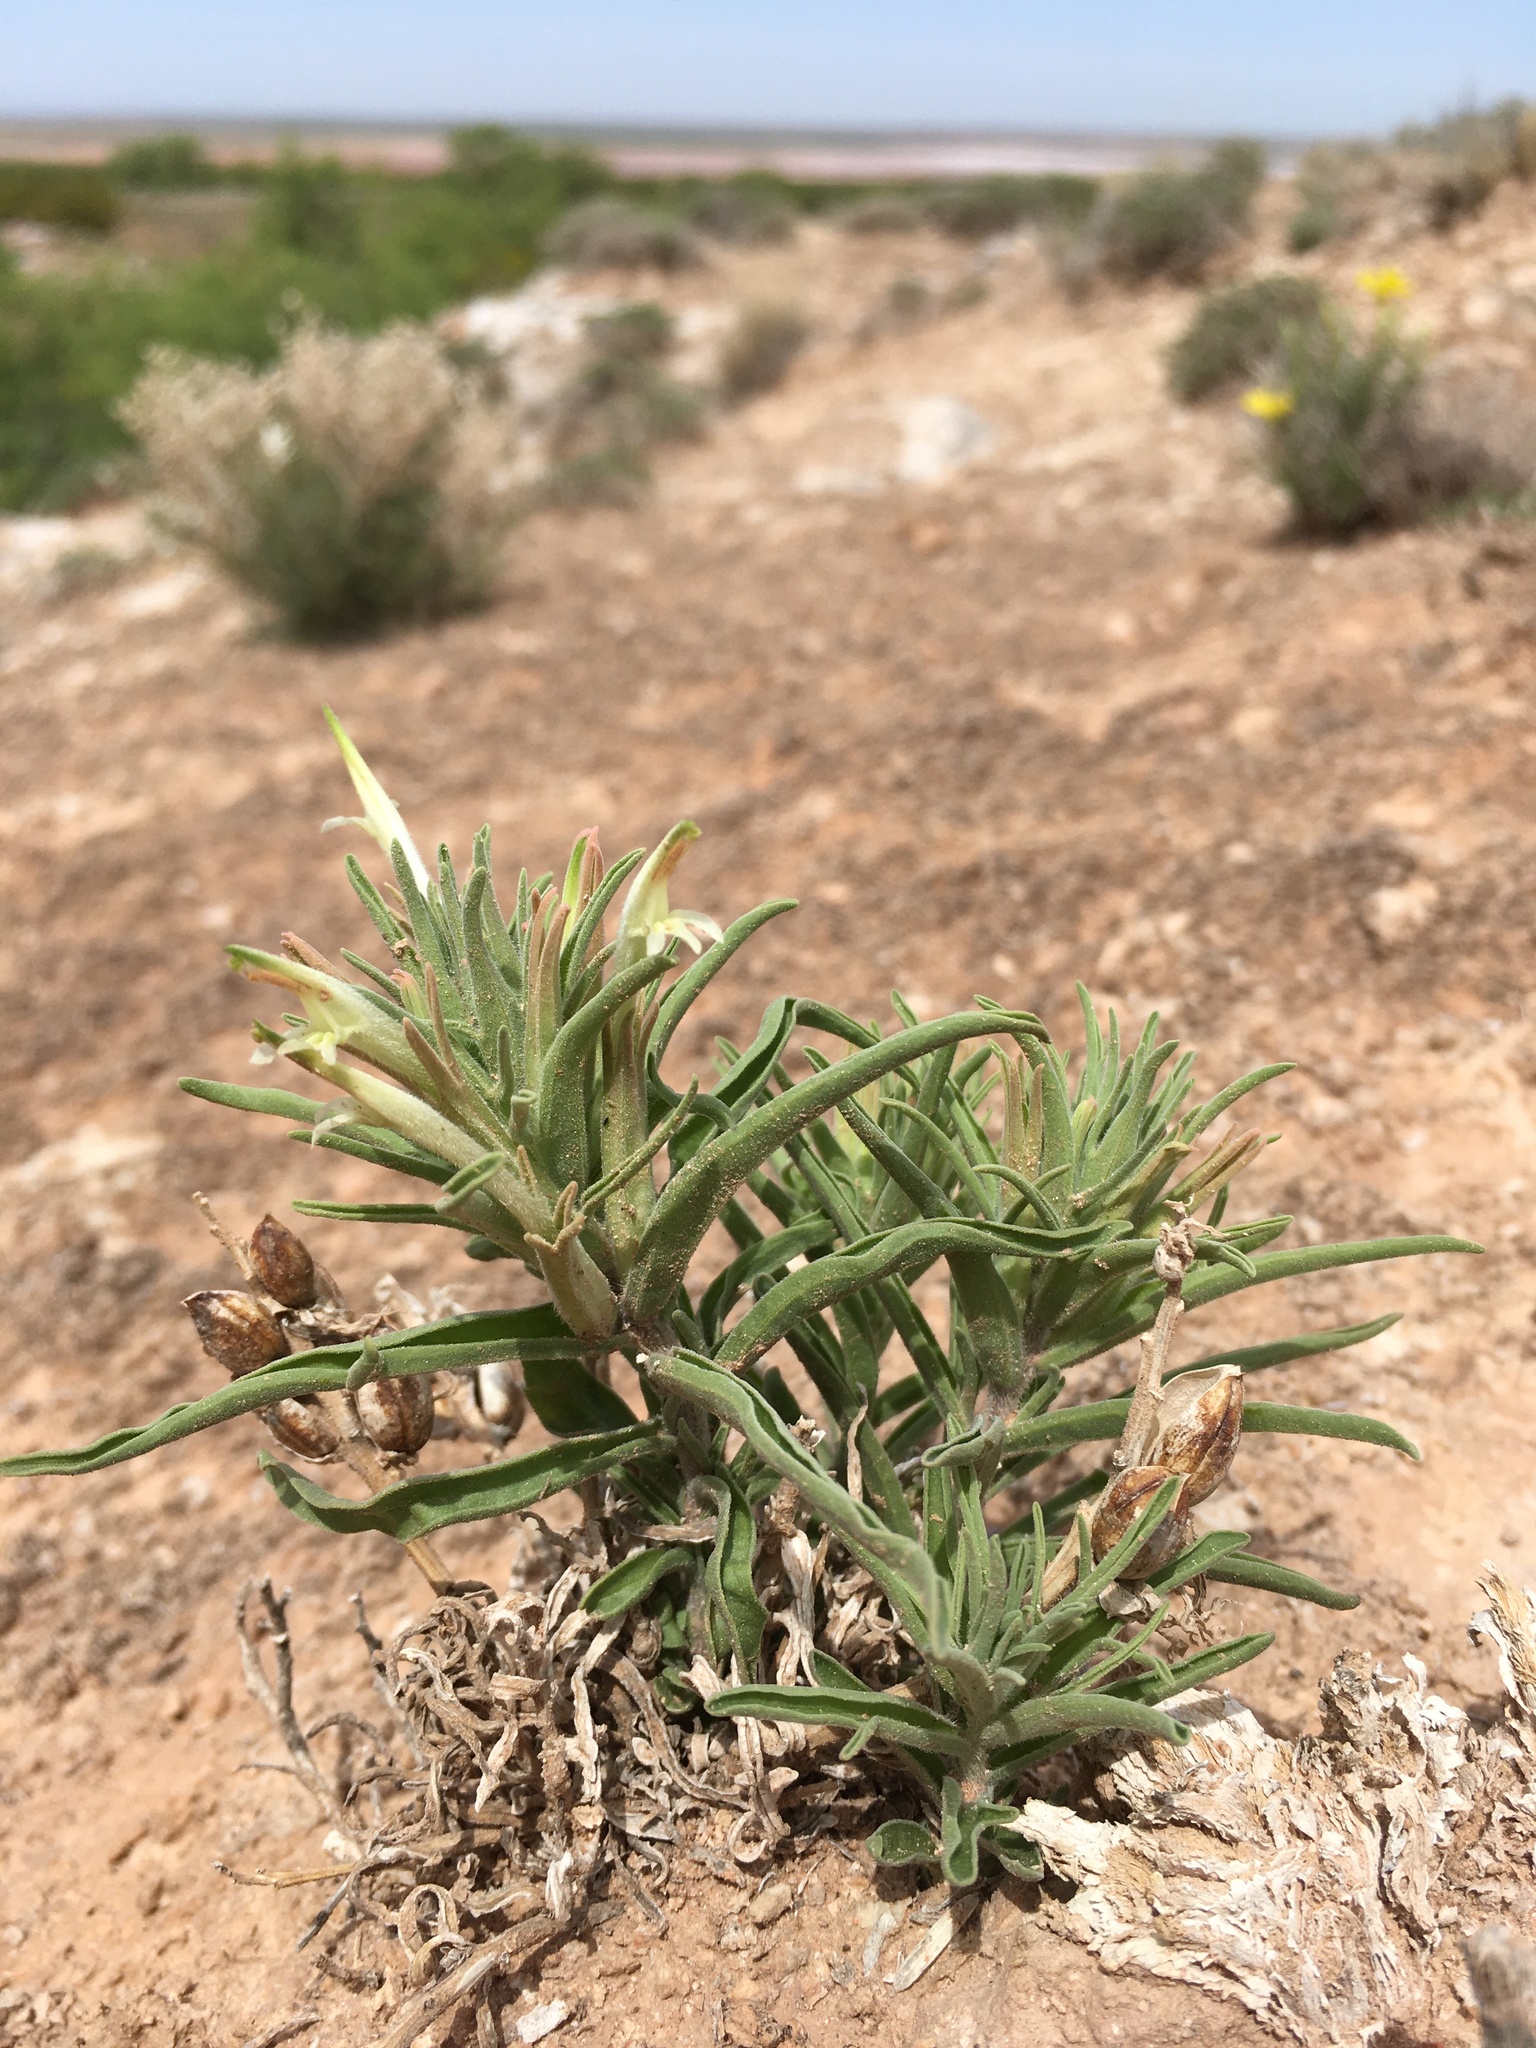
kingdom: Plantae
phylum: Tracheophyta
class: Magnoliopsida
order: Lamiales
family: Orobanchaceae
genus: Castilleja
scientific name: Castilleja sessiliflora
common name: Downy paintbrush
